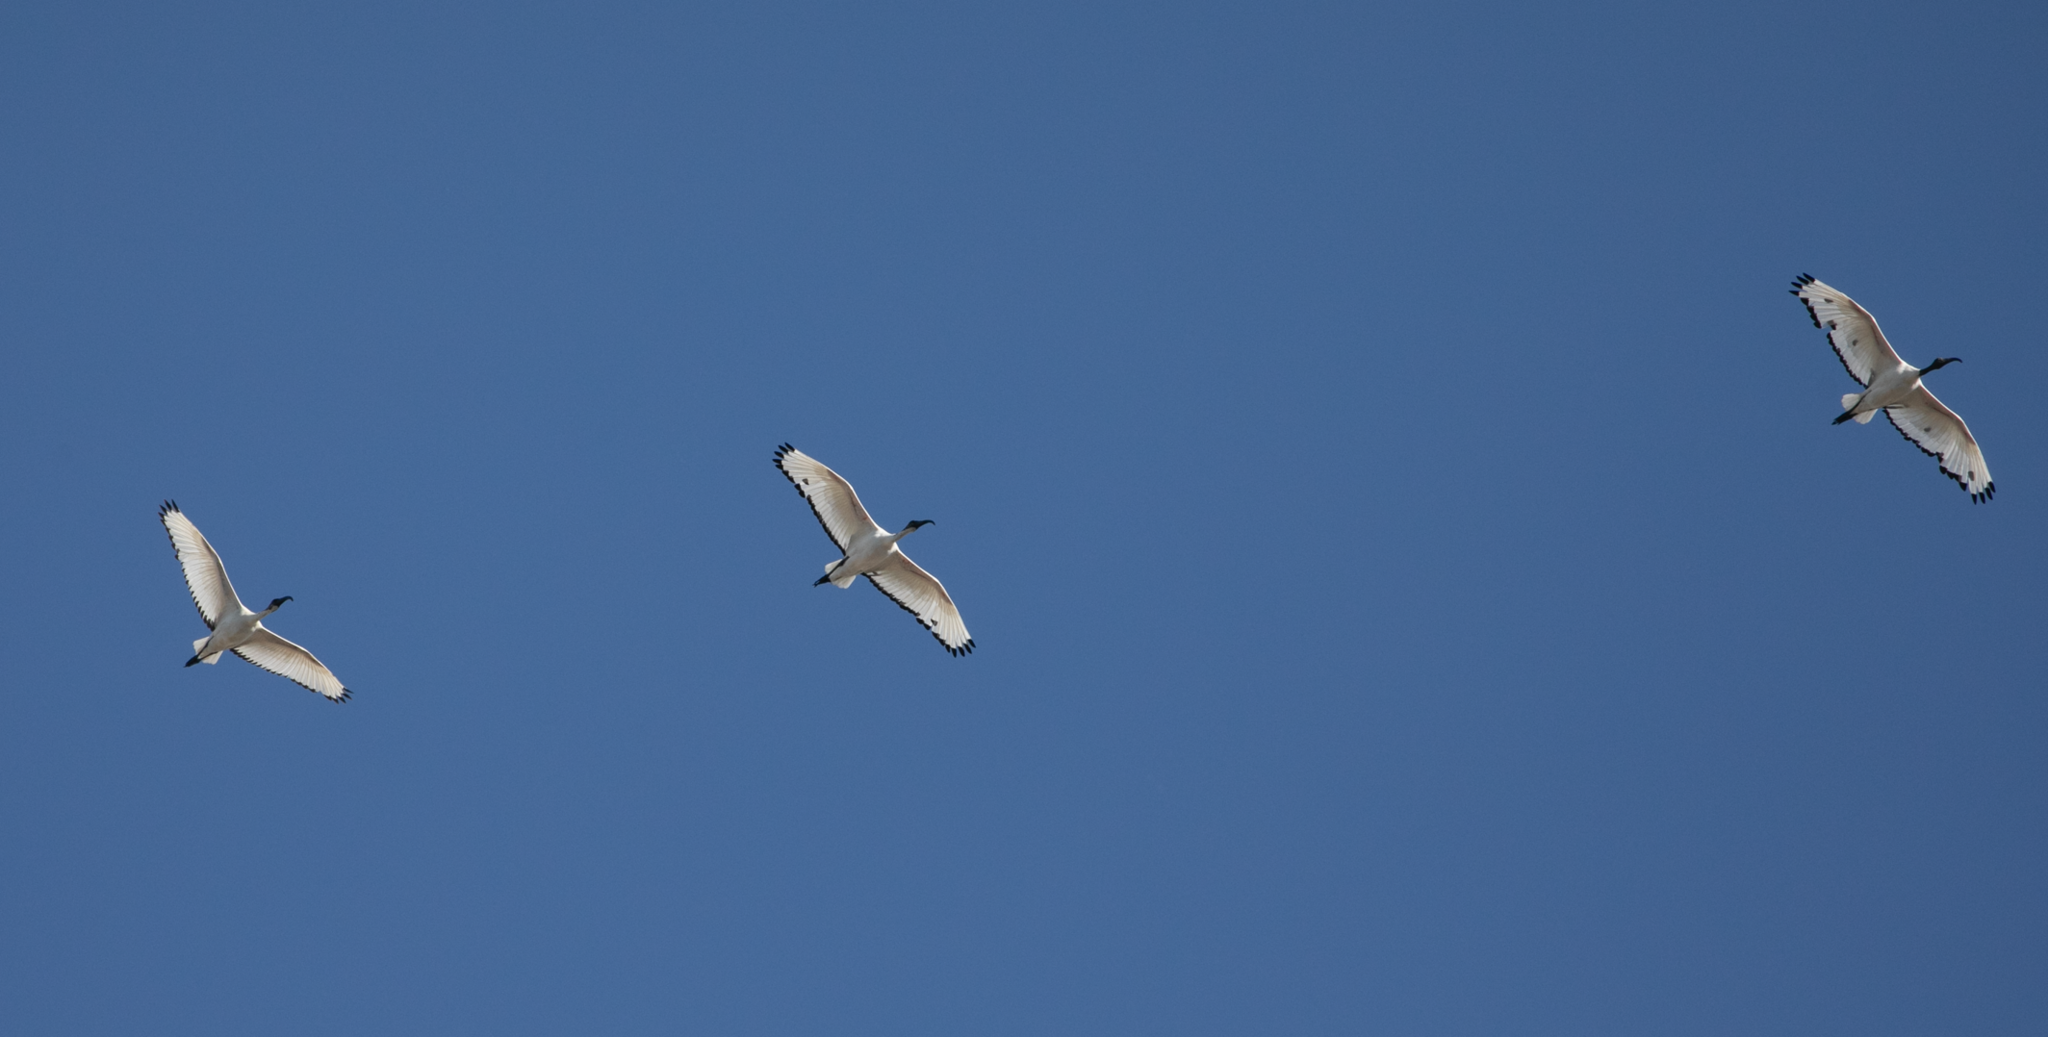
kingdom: Animalia
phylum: Chordata
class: Aves
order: Pelecaniformes
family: Threskiornithidae
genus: Threskiornis
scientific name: Threskiornis aethiopicus
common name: Sacred ibis
